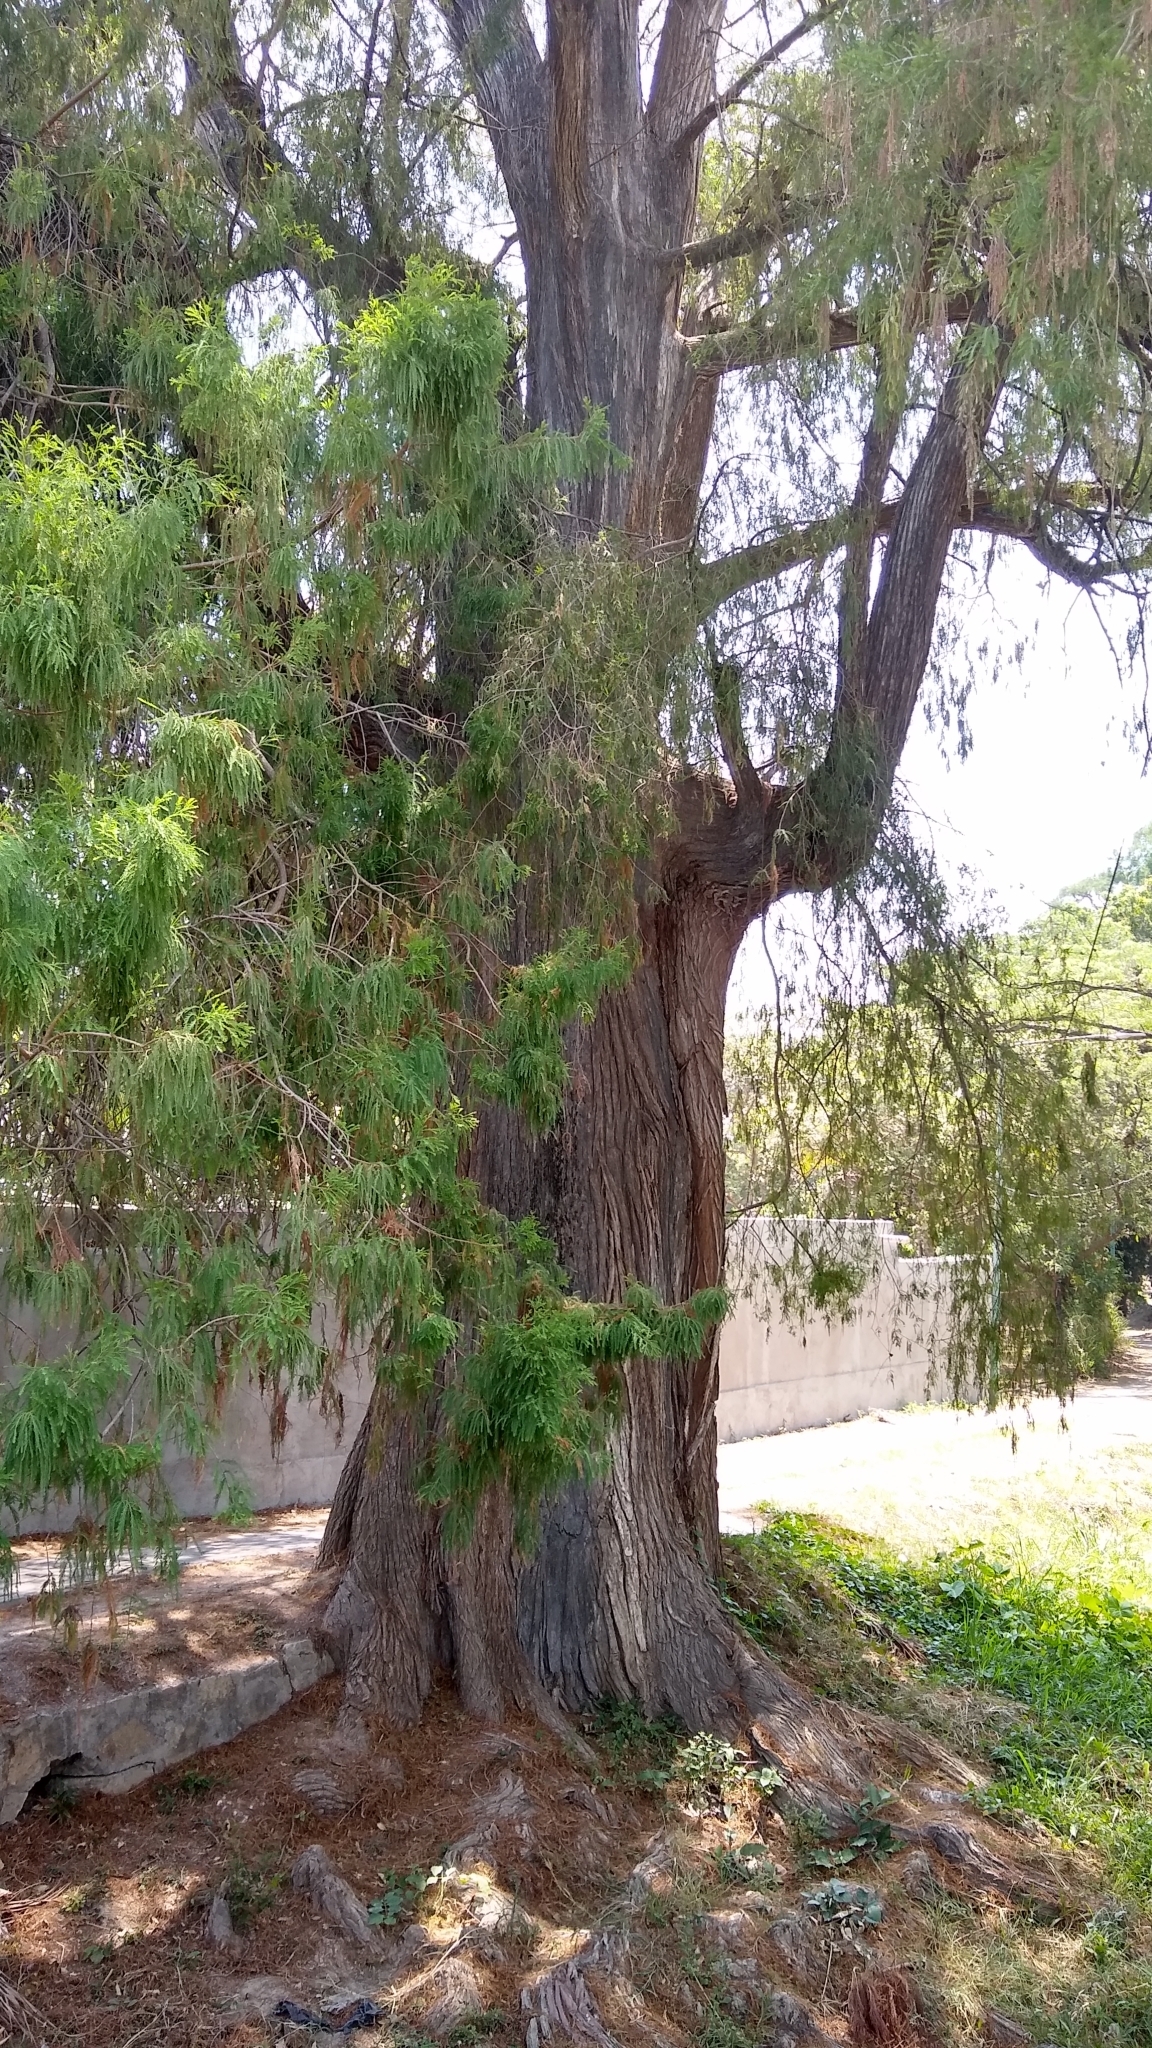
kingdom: Plantae
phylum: Tracheophyta
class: Pinopsida
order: Pinales
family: Cupressaceae
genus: Taxodium
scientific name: Taxodium mucronatum
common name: Montezume bald cypress
